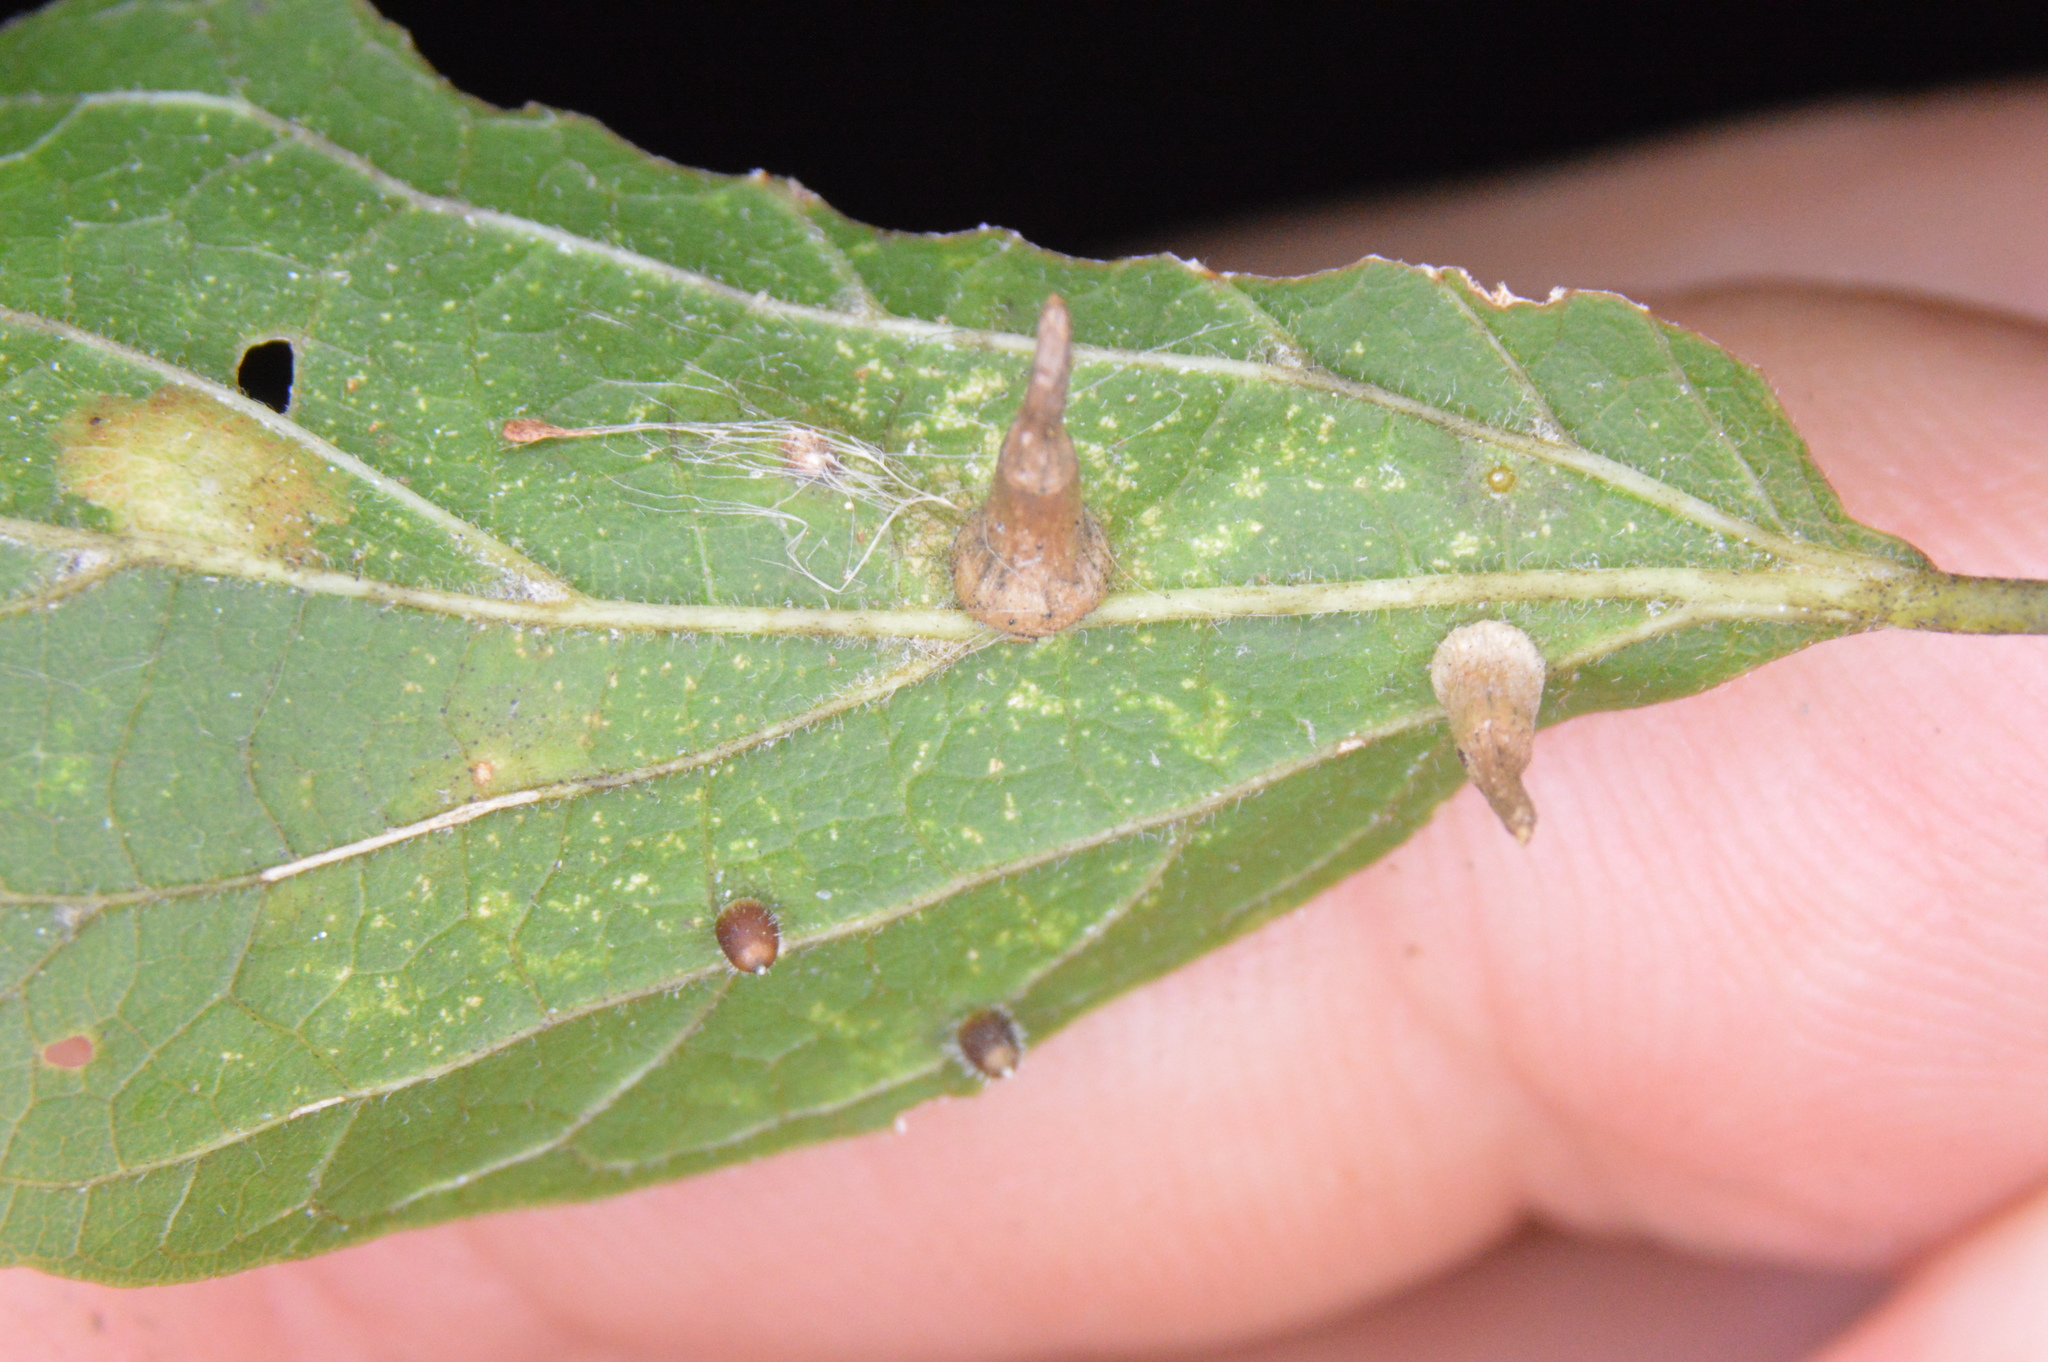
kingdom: Animalia
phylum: Arthropoda
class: Insecta
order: Diptera
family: Cecidomyiidae
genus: Celticecis
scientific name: Celticecis subulata
